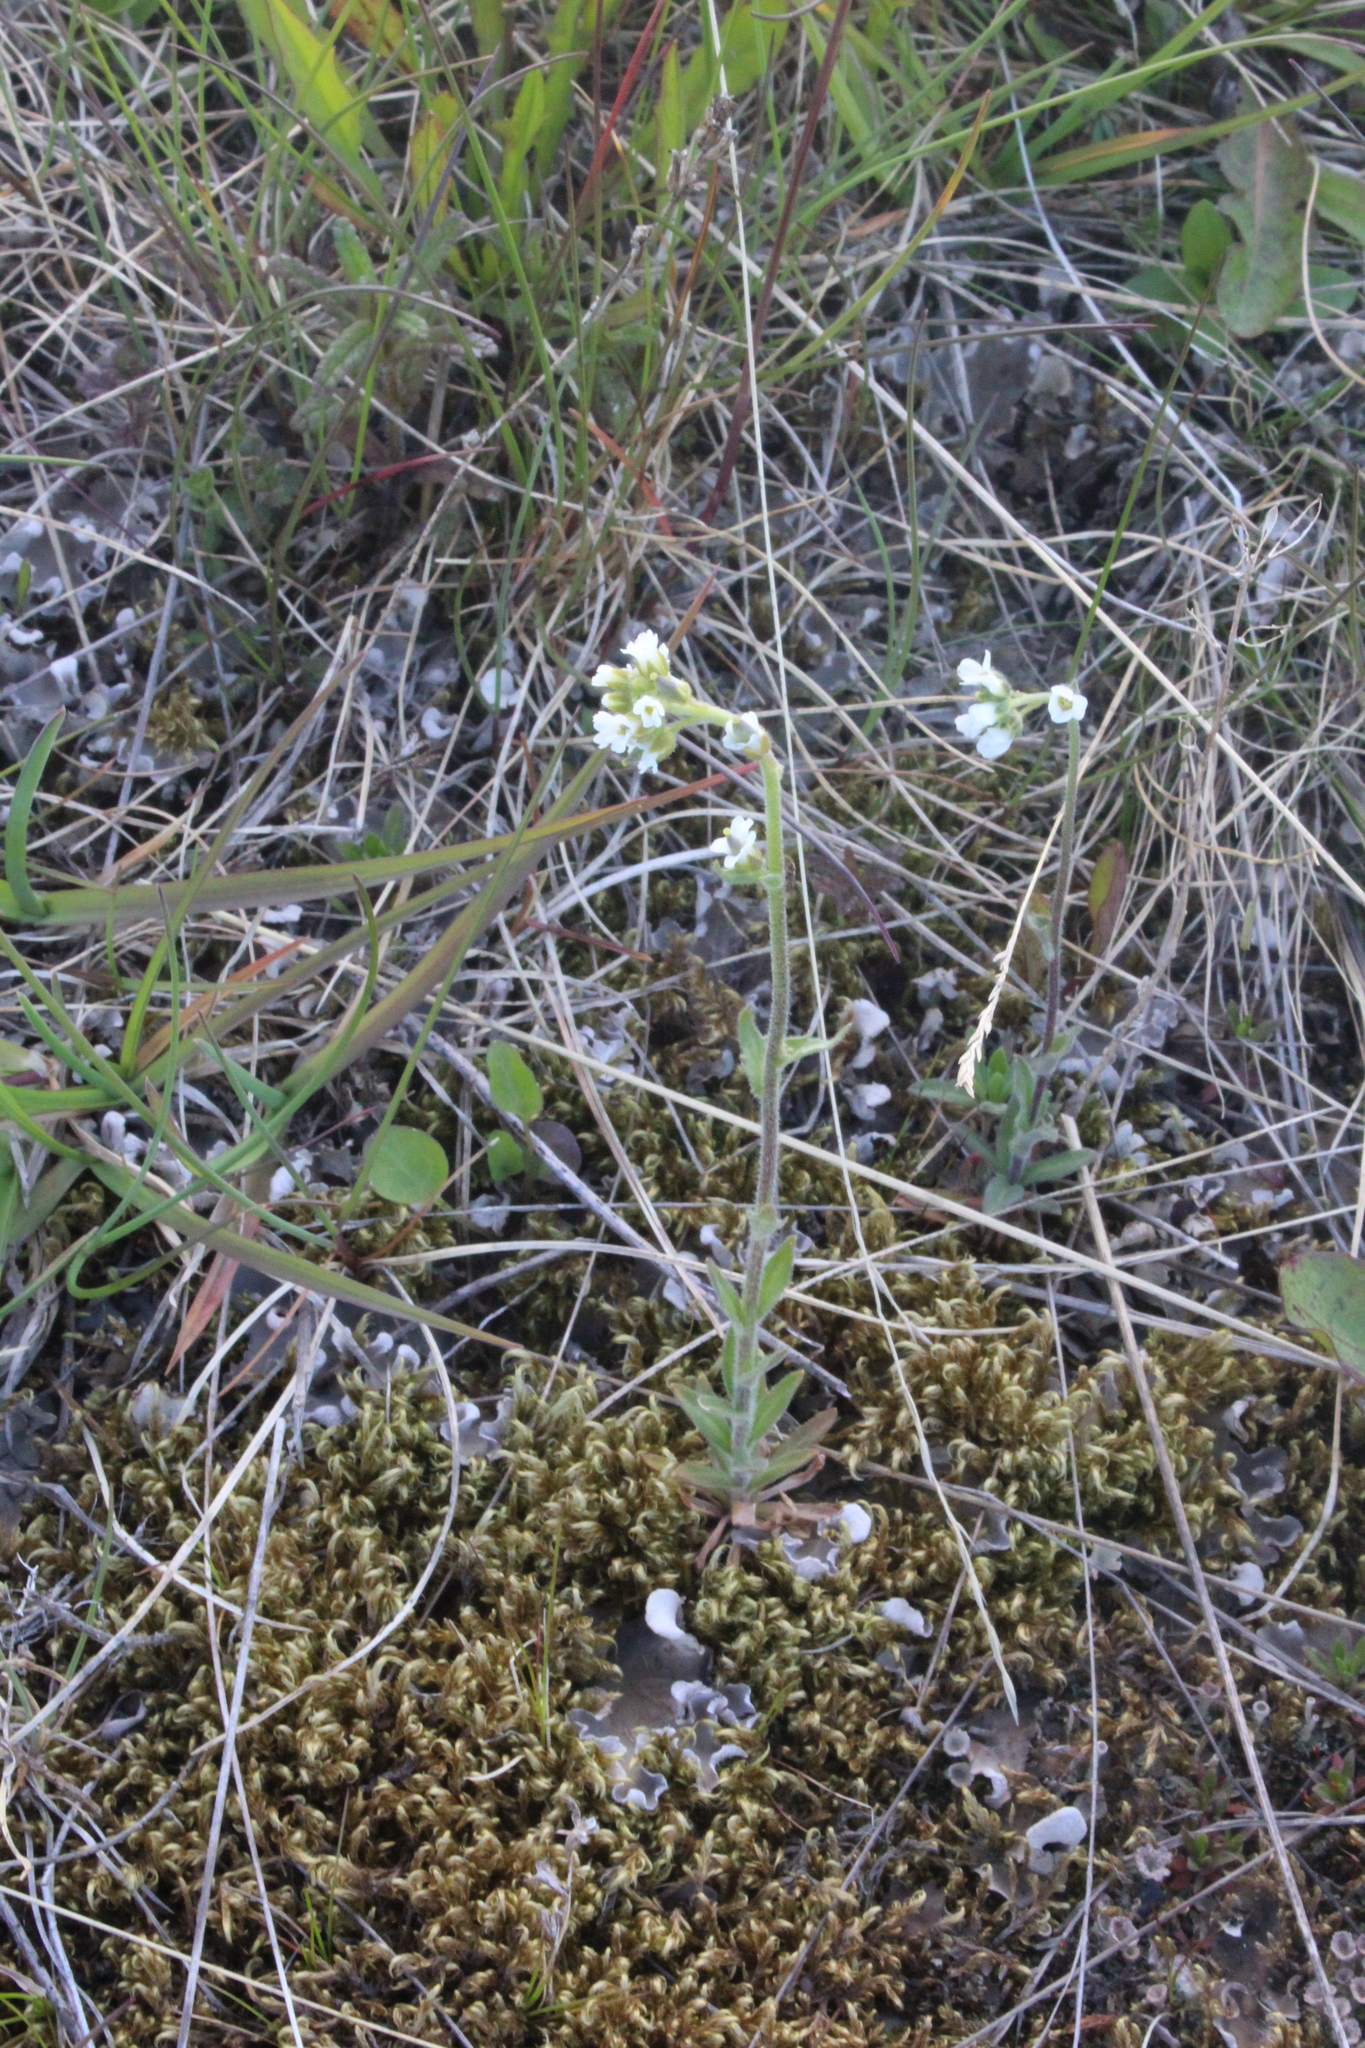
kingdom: Plantae
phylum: Tracheophyta
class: Magnoliopsida
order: Brassicales
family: Brassicaceae
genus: Draba
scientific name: Draba incana
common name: Hoary whitlow-grass
